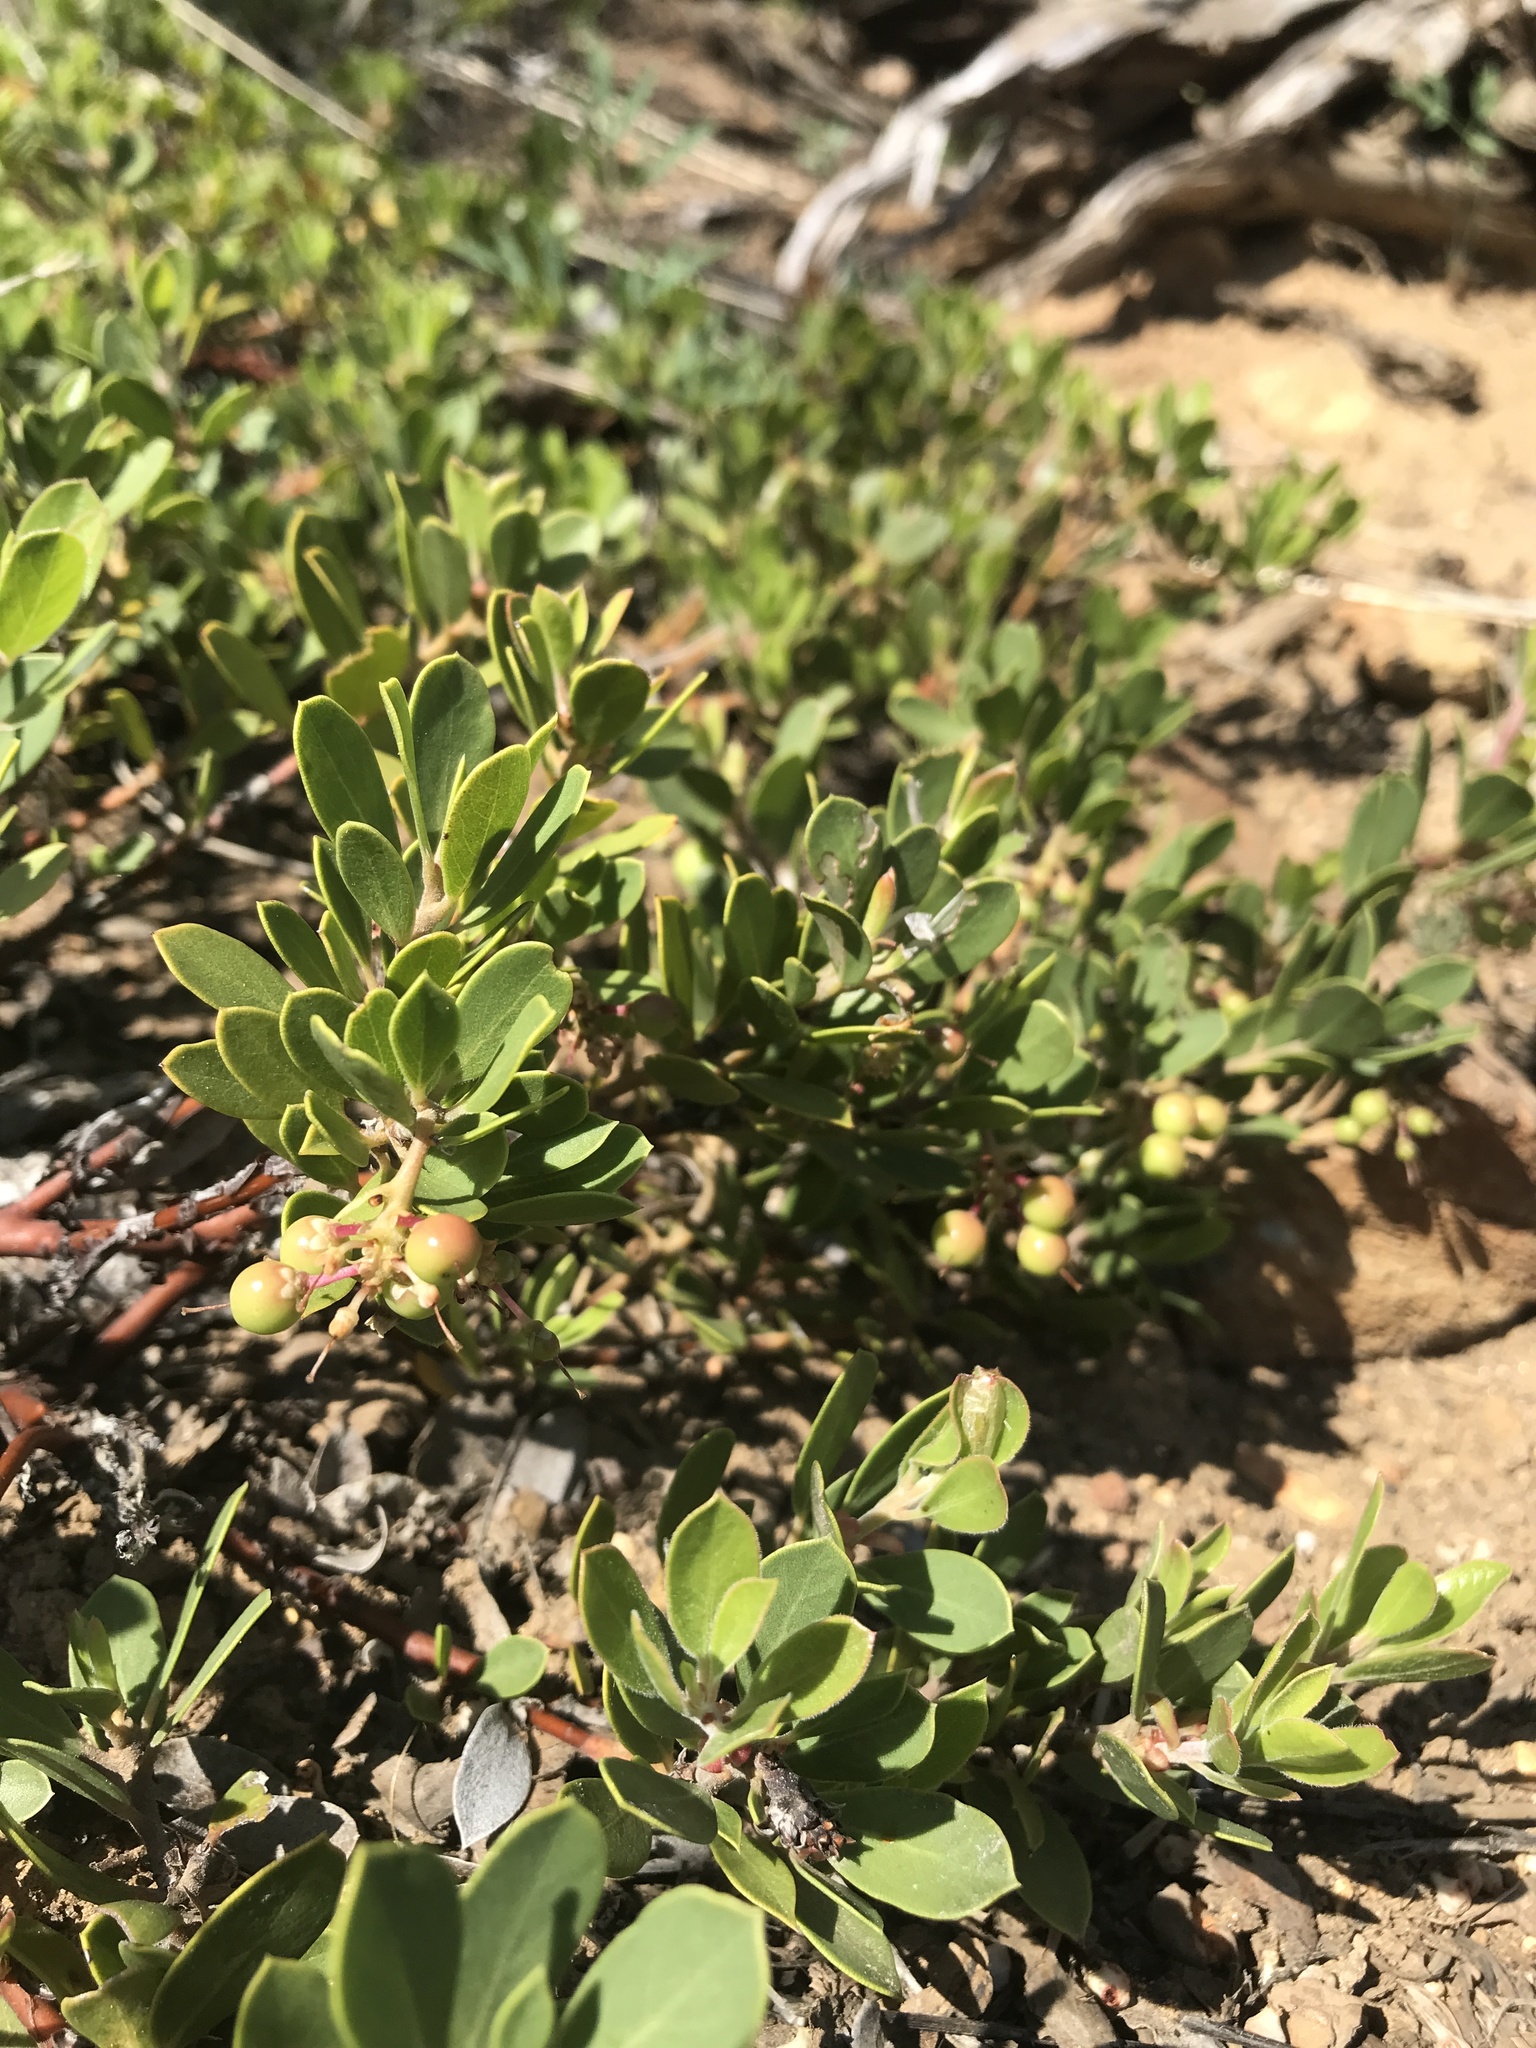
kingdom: Plantae
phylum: Tracheophyta
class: Magnoliopsida
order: Ericales
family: Ericaceae
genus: Arctostaphylos
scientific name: Arctostaphylos nevadensis
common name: Pinemat manzanita
